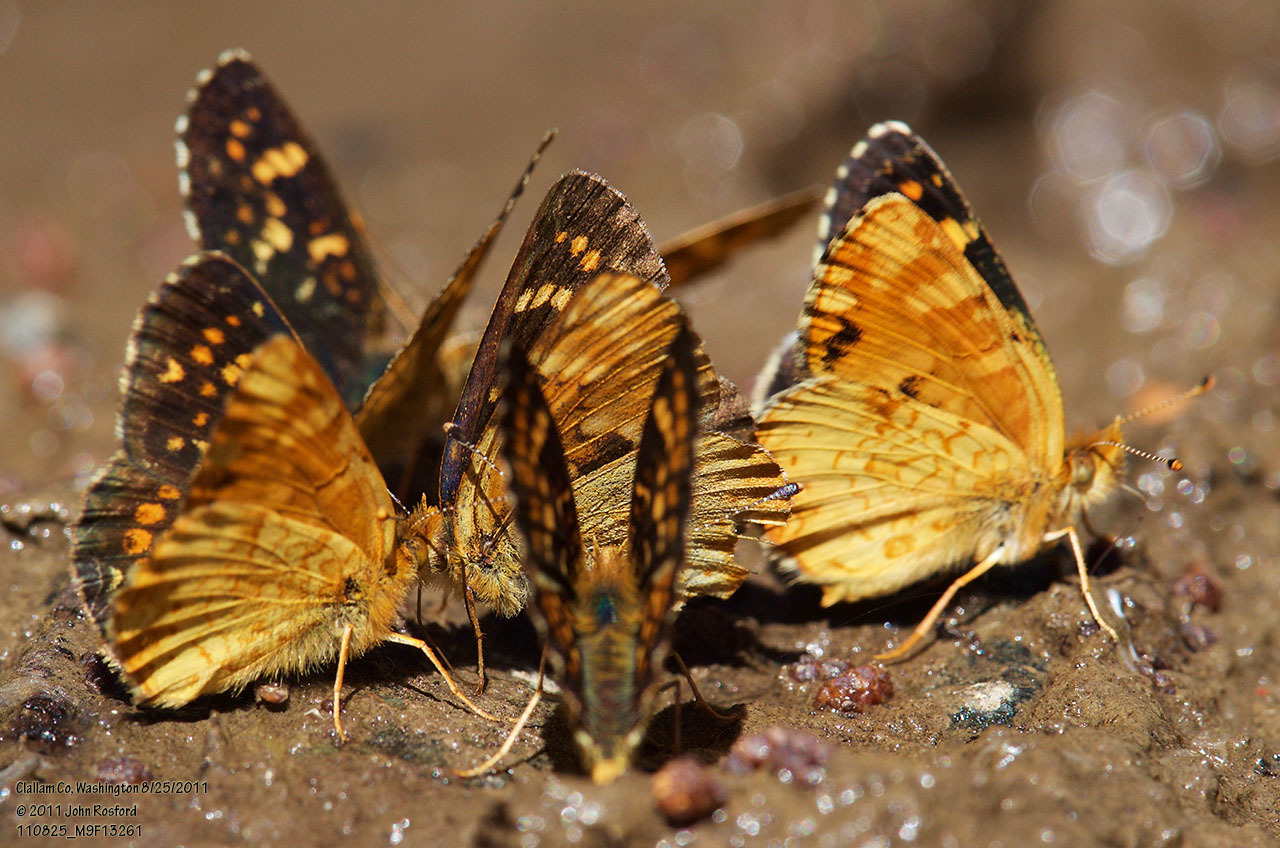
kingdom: Animalia
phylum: Arthropoda
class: Insecta
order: Lepidoptera
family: Nymphalidae
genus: Phyciodes
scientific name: Phyciodes tharos
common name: Pearl crescent
